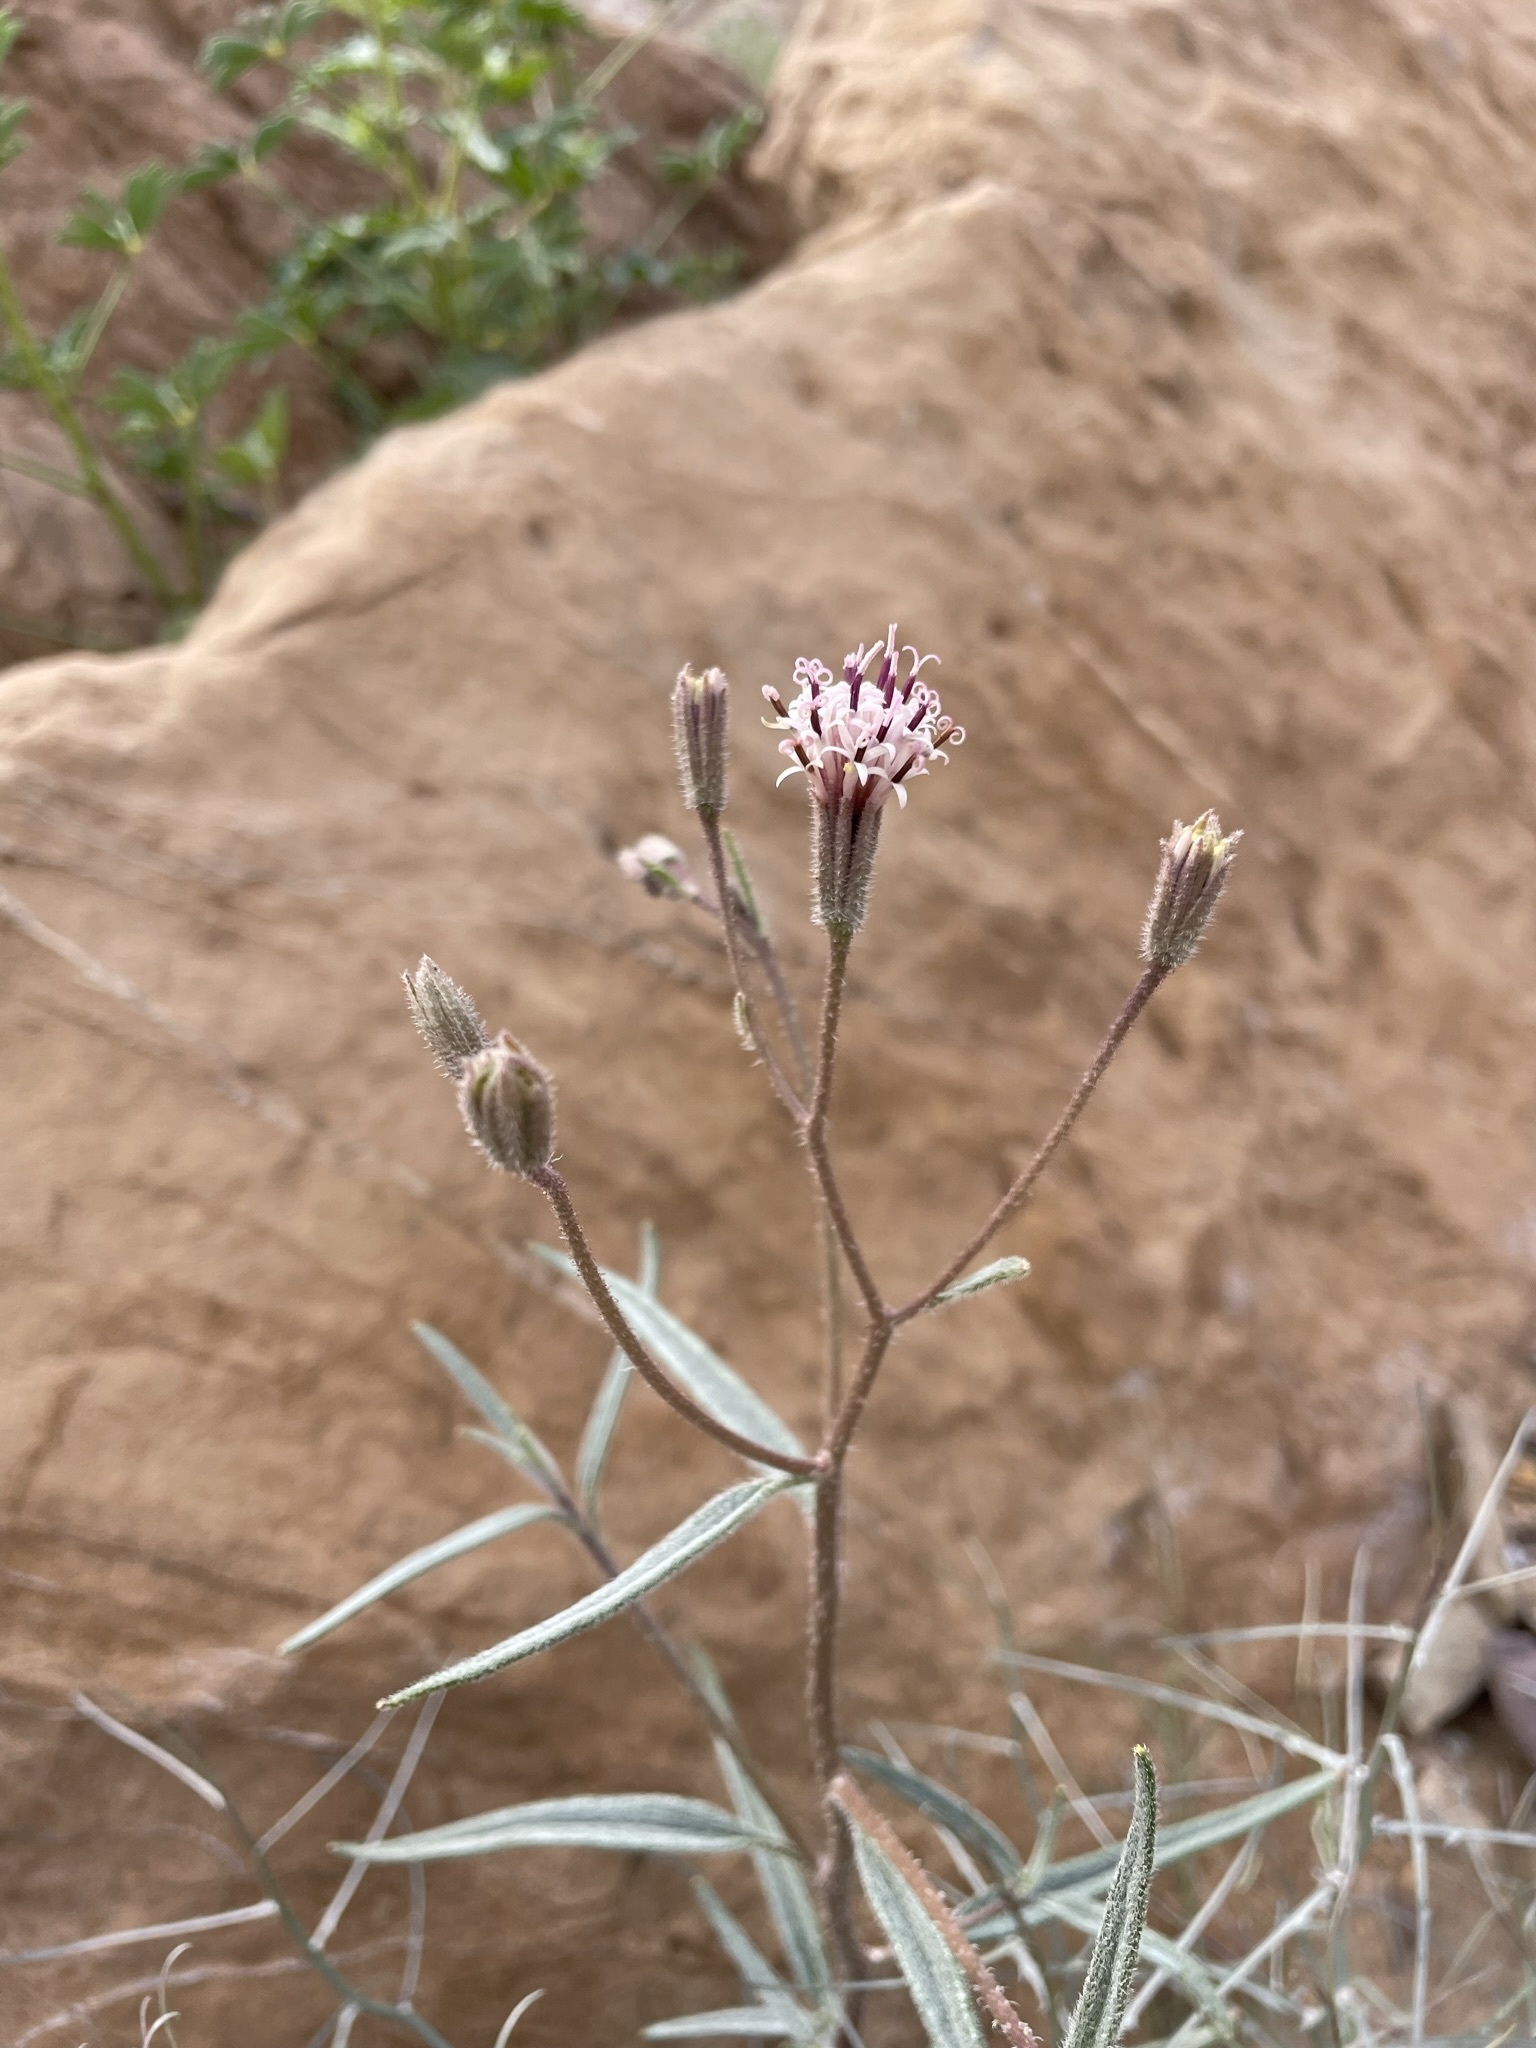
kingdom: Plantae
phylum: Tracheophyta
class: Magnoliopsida
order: Asterales
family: Asteraceae
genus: Palafoxia
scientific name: Palafoxia arida
